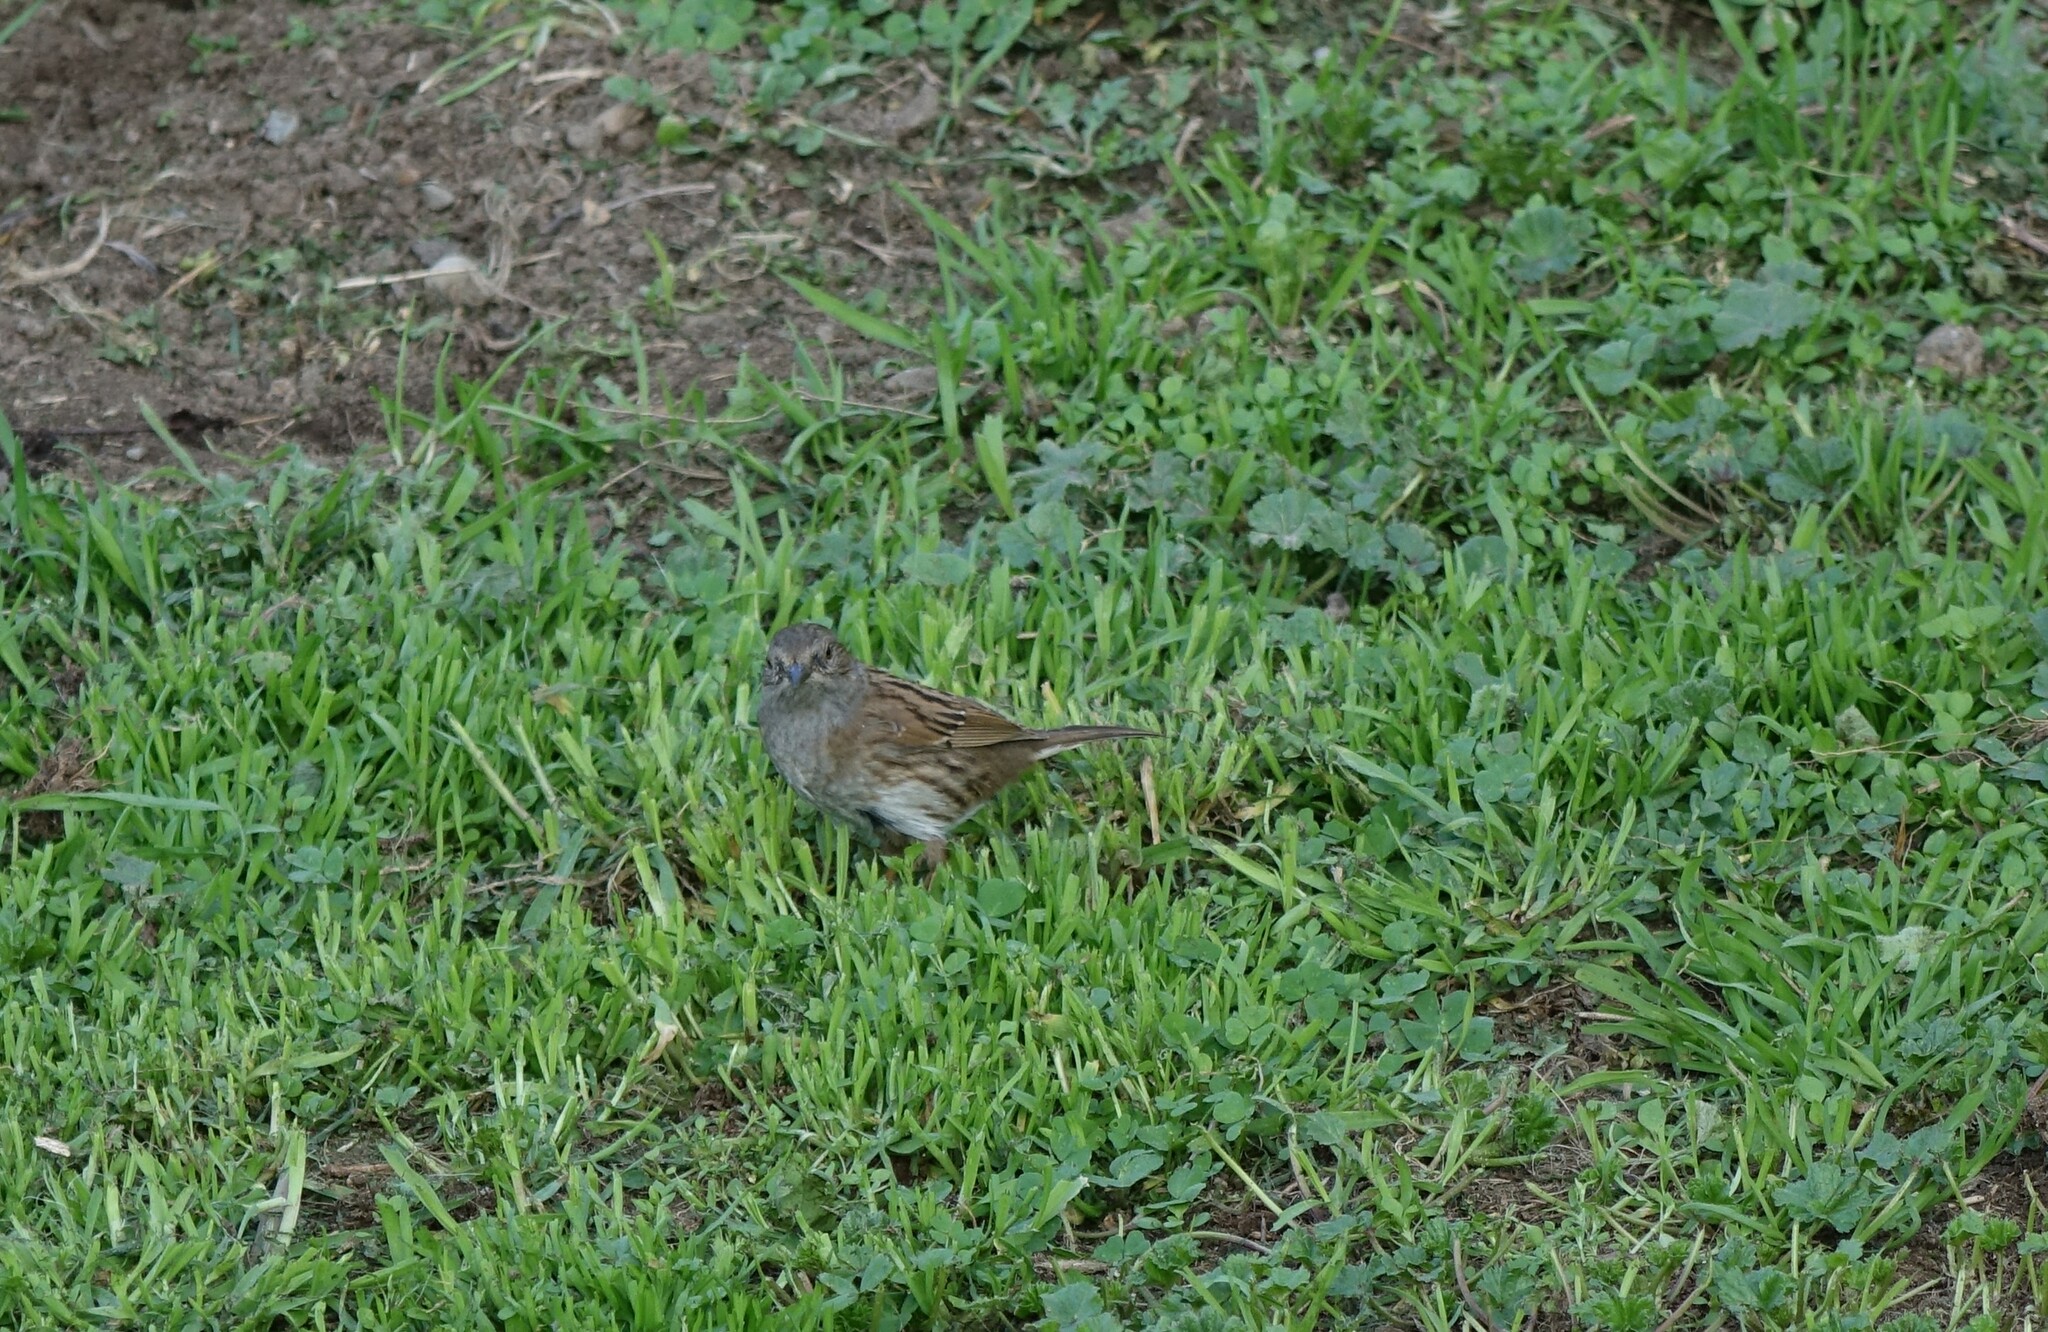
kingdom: Animalia
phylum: Chordata
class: Aves
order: Passeriformes
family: Prunellidae
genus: Prunella
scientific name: Prunella modularis
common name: Dunnock
